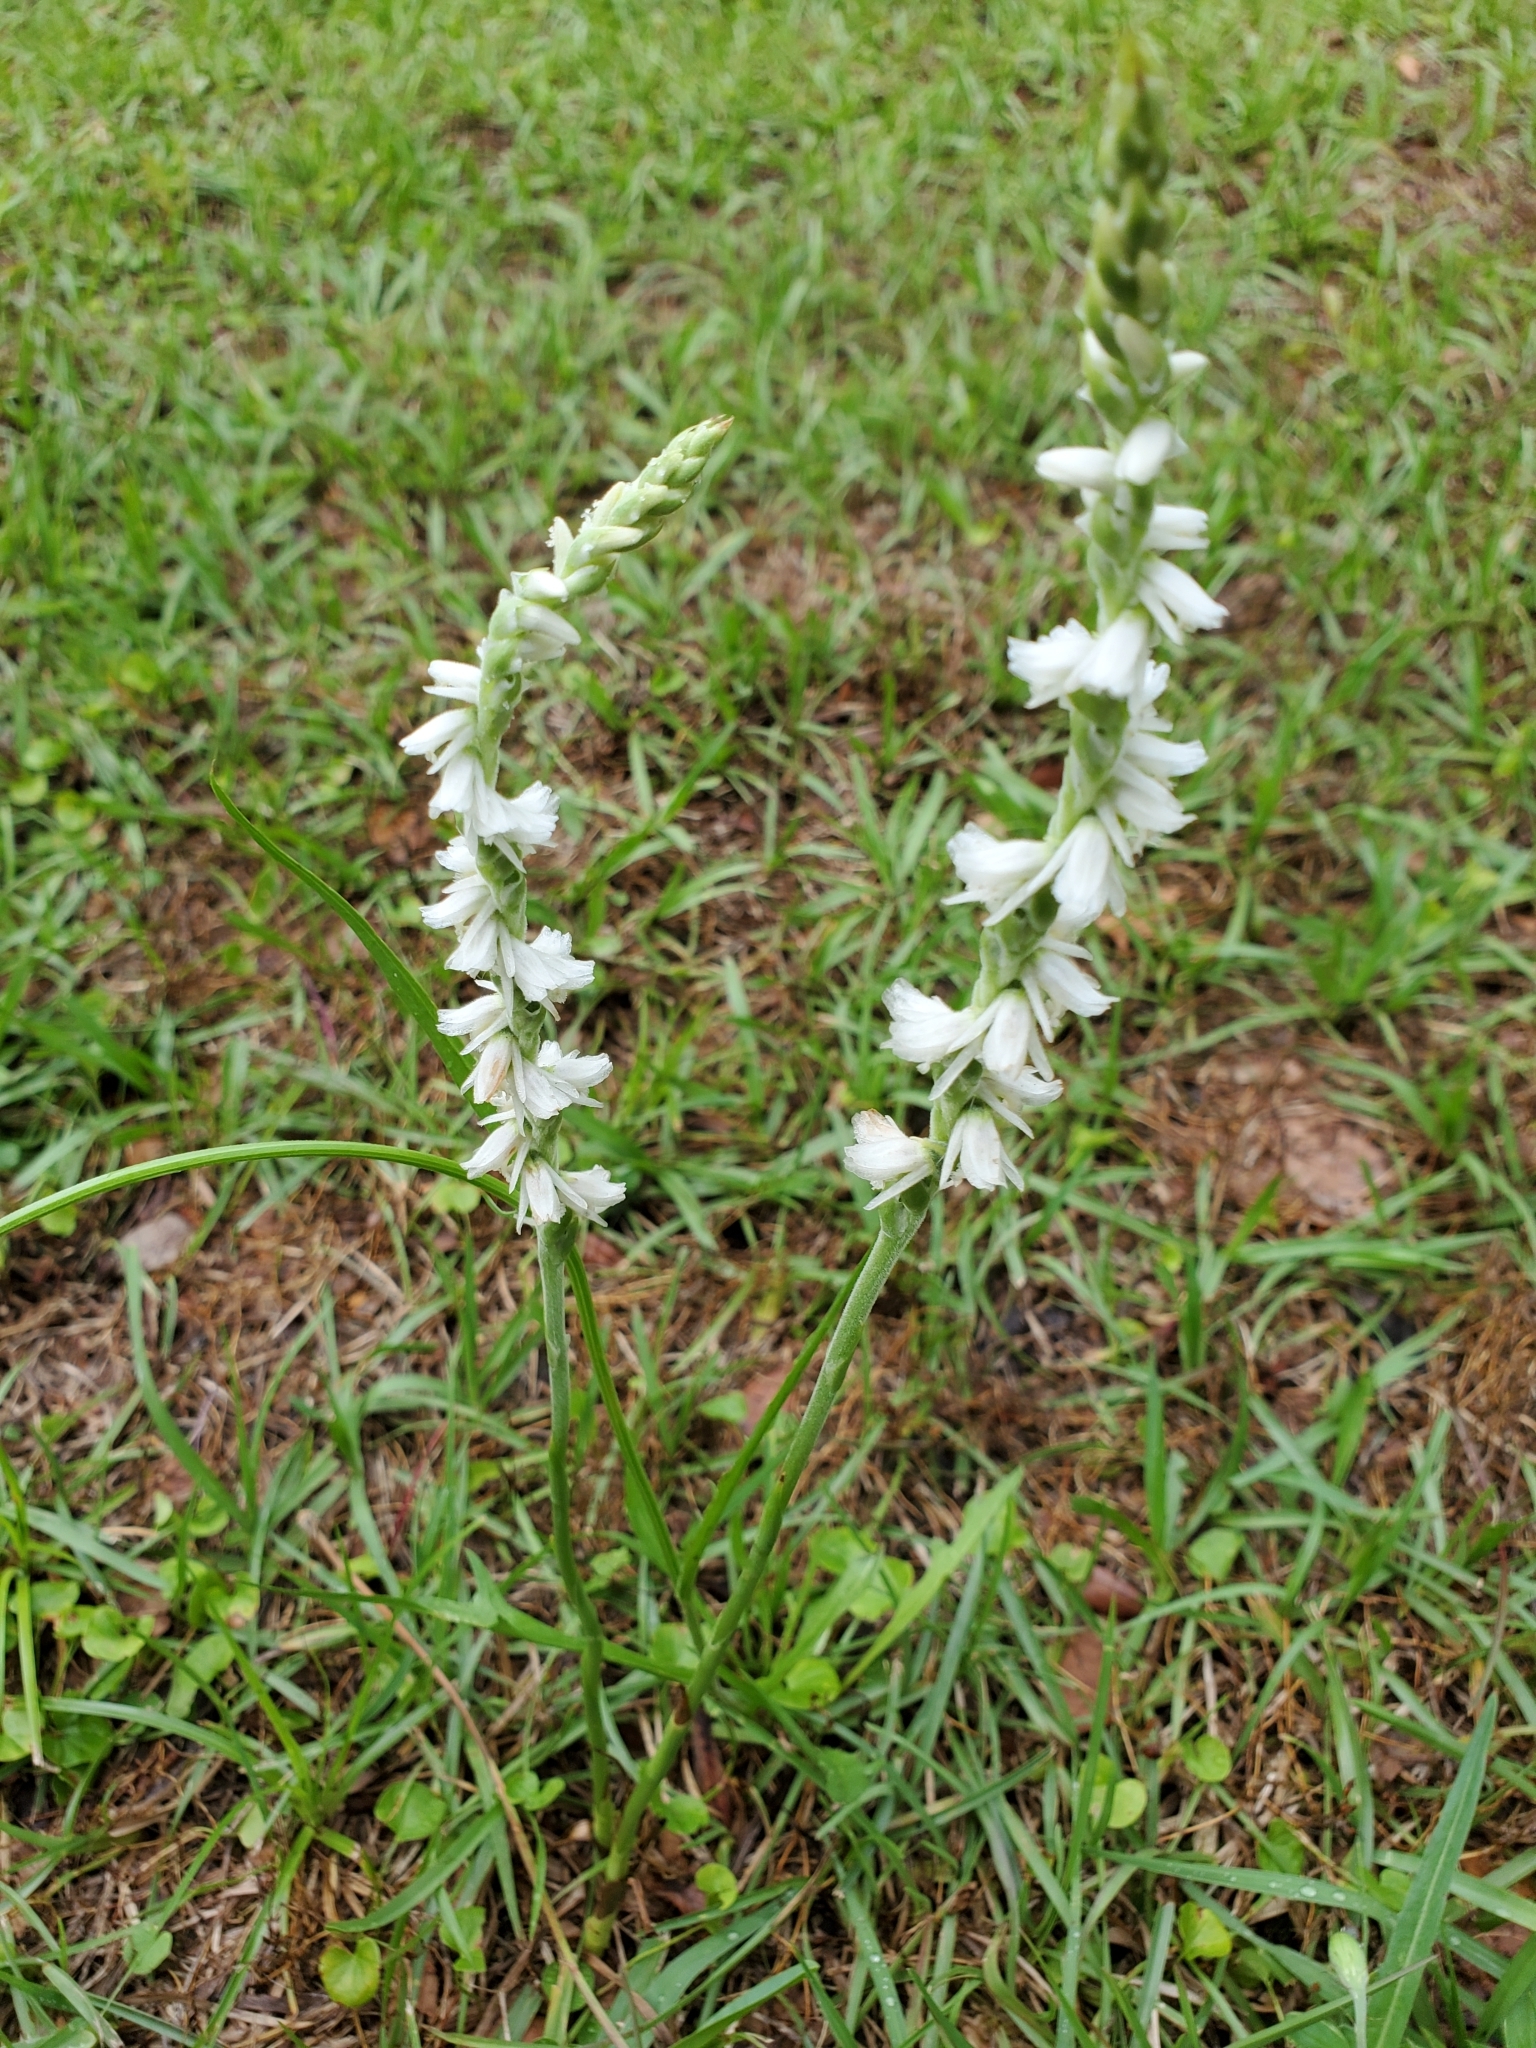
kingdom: Plantae
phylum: Tracheophyta
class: Liliopsida
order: Asparagales
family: Orchidaceae
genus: Spiranthes
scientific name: Spiranthes vernalis
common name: Spring ladies'-tresses
